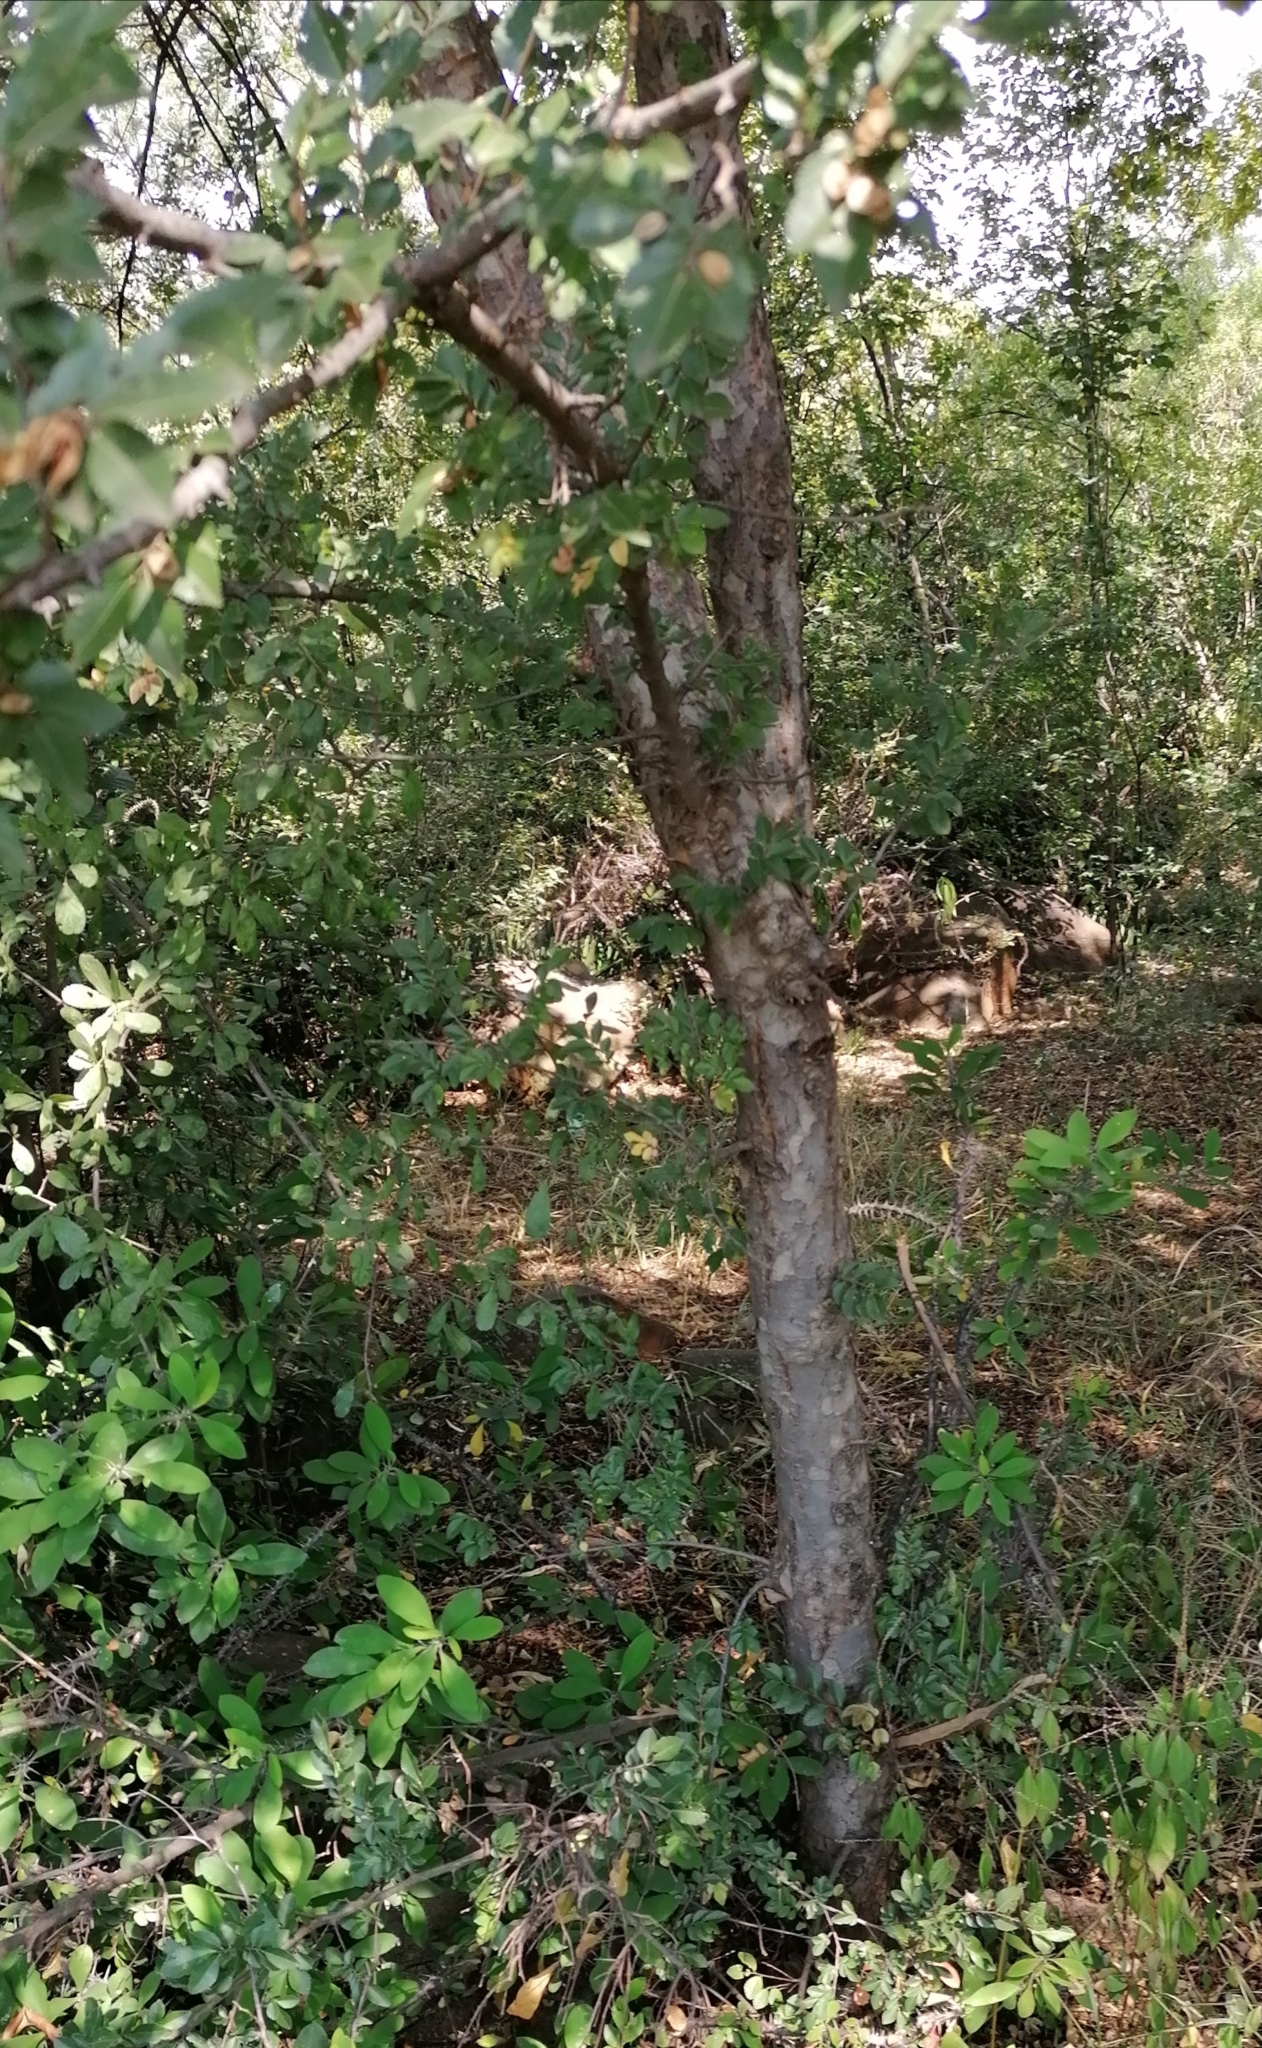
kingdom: Plantae
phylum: Tracheophyta
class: Magnoliopsida
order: Rosales
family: Ulmaceae
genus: Ulmus
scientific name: Ulmus parvifolia
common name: Chinese elm
